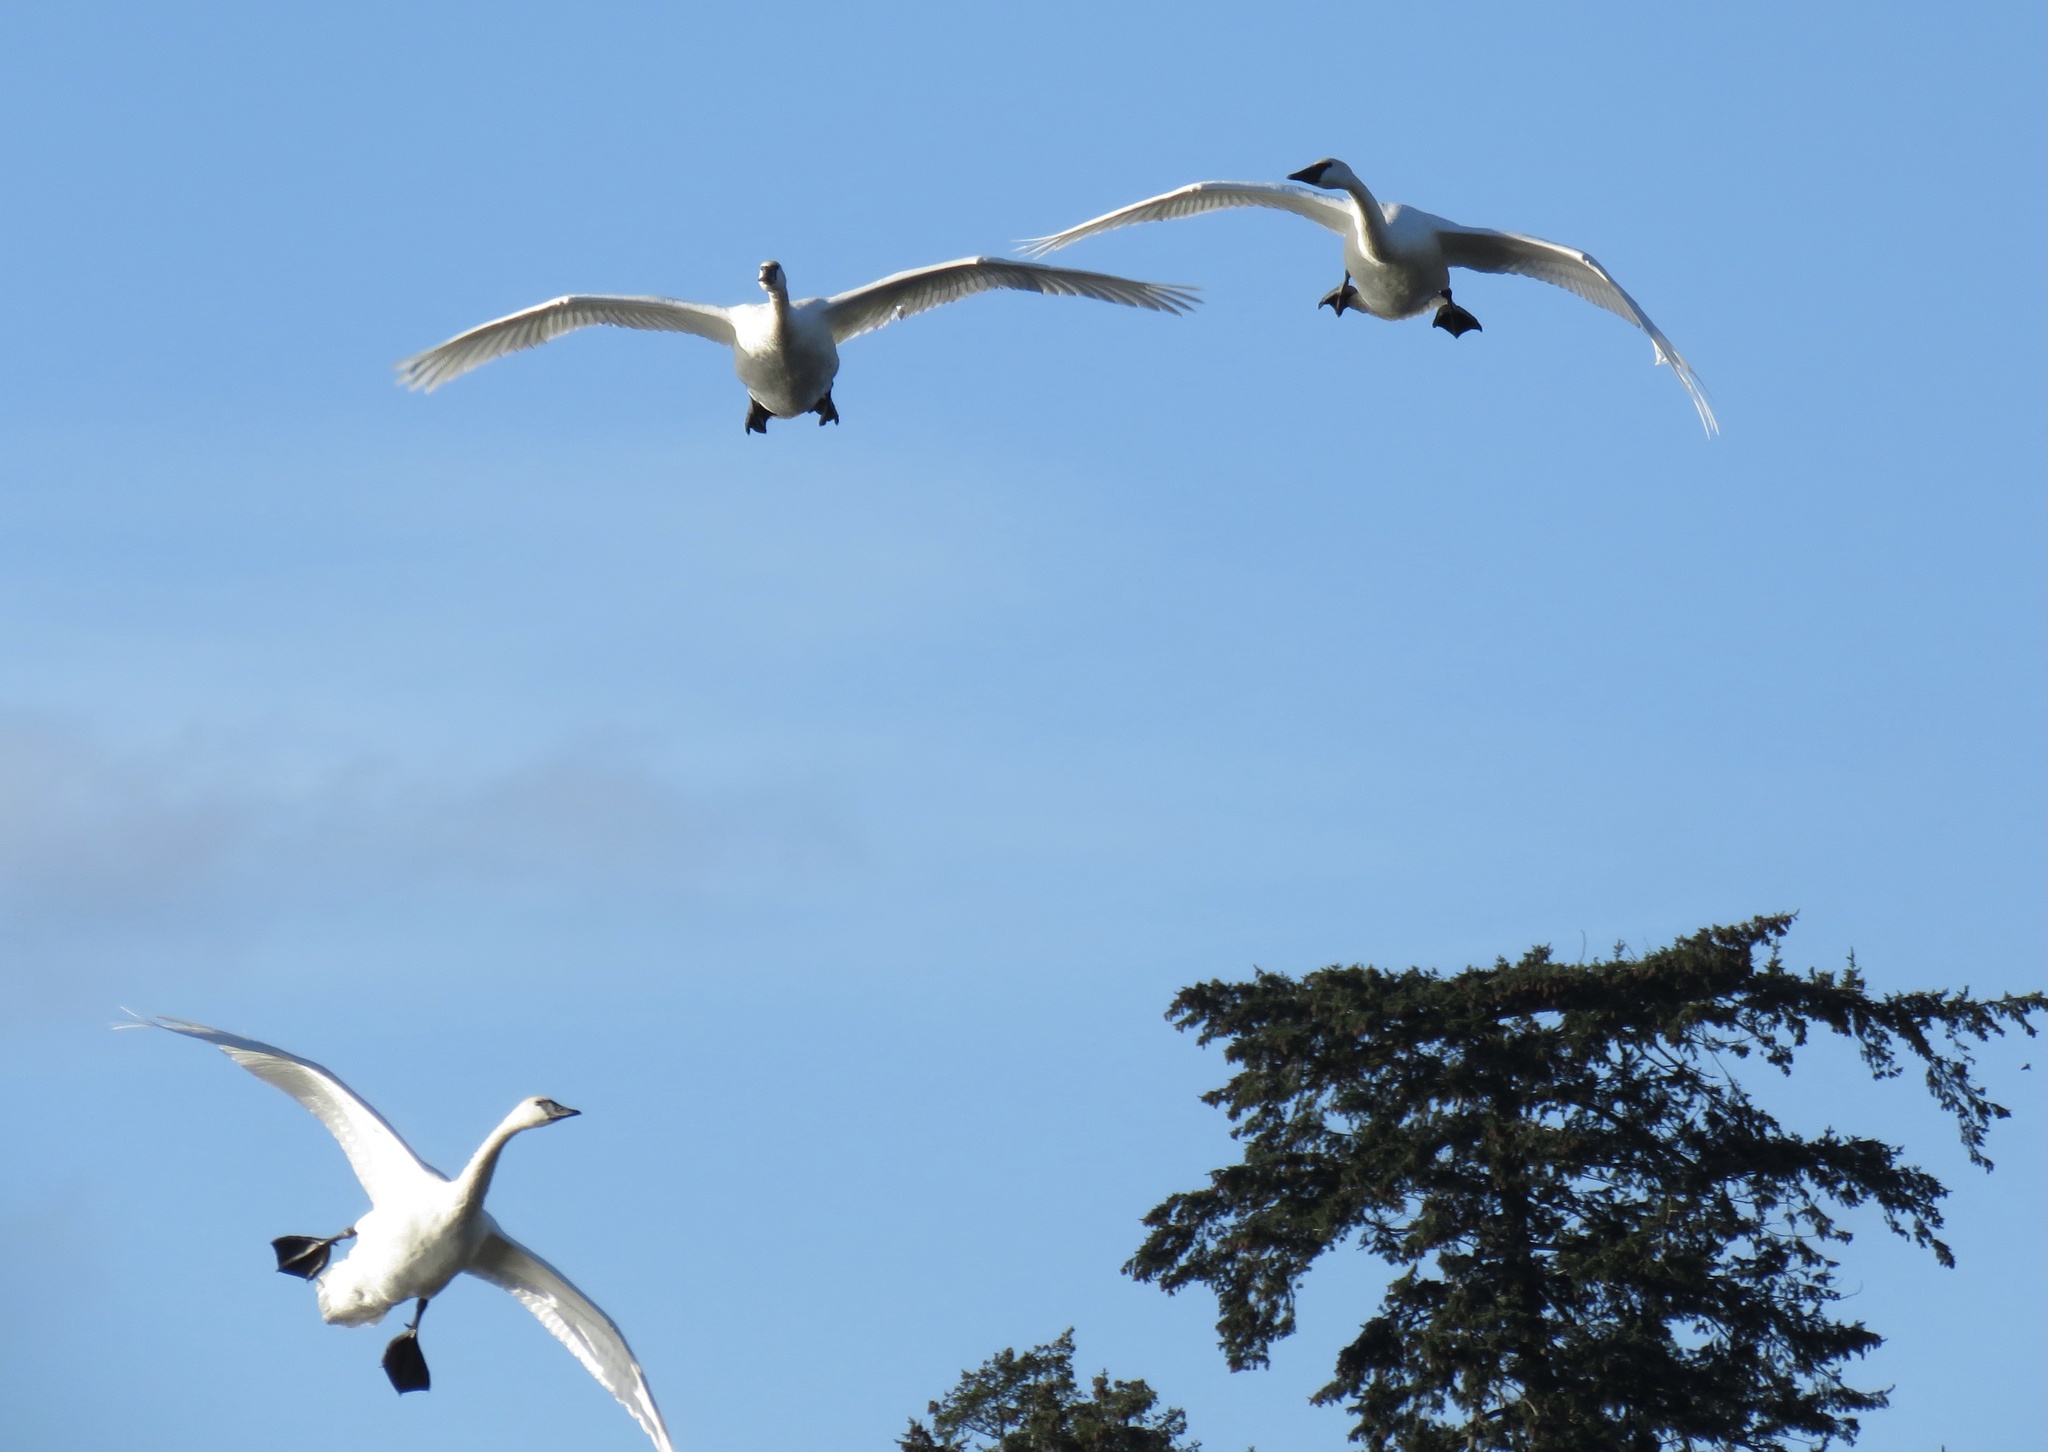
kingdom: Animalia
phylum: Chordata
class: Aves
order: Anseriformes
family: Anatidae
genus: Cygnus
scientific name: Cygnus buccinator
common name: Trumpeter swan
